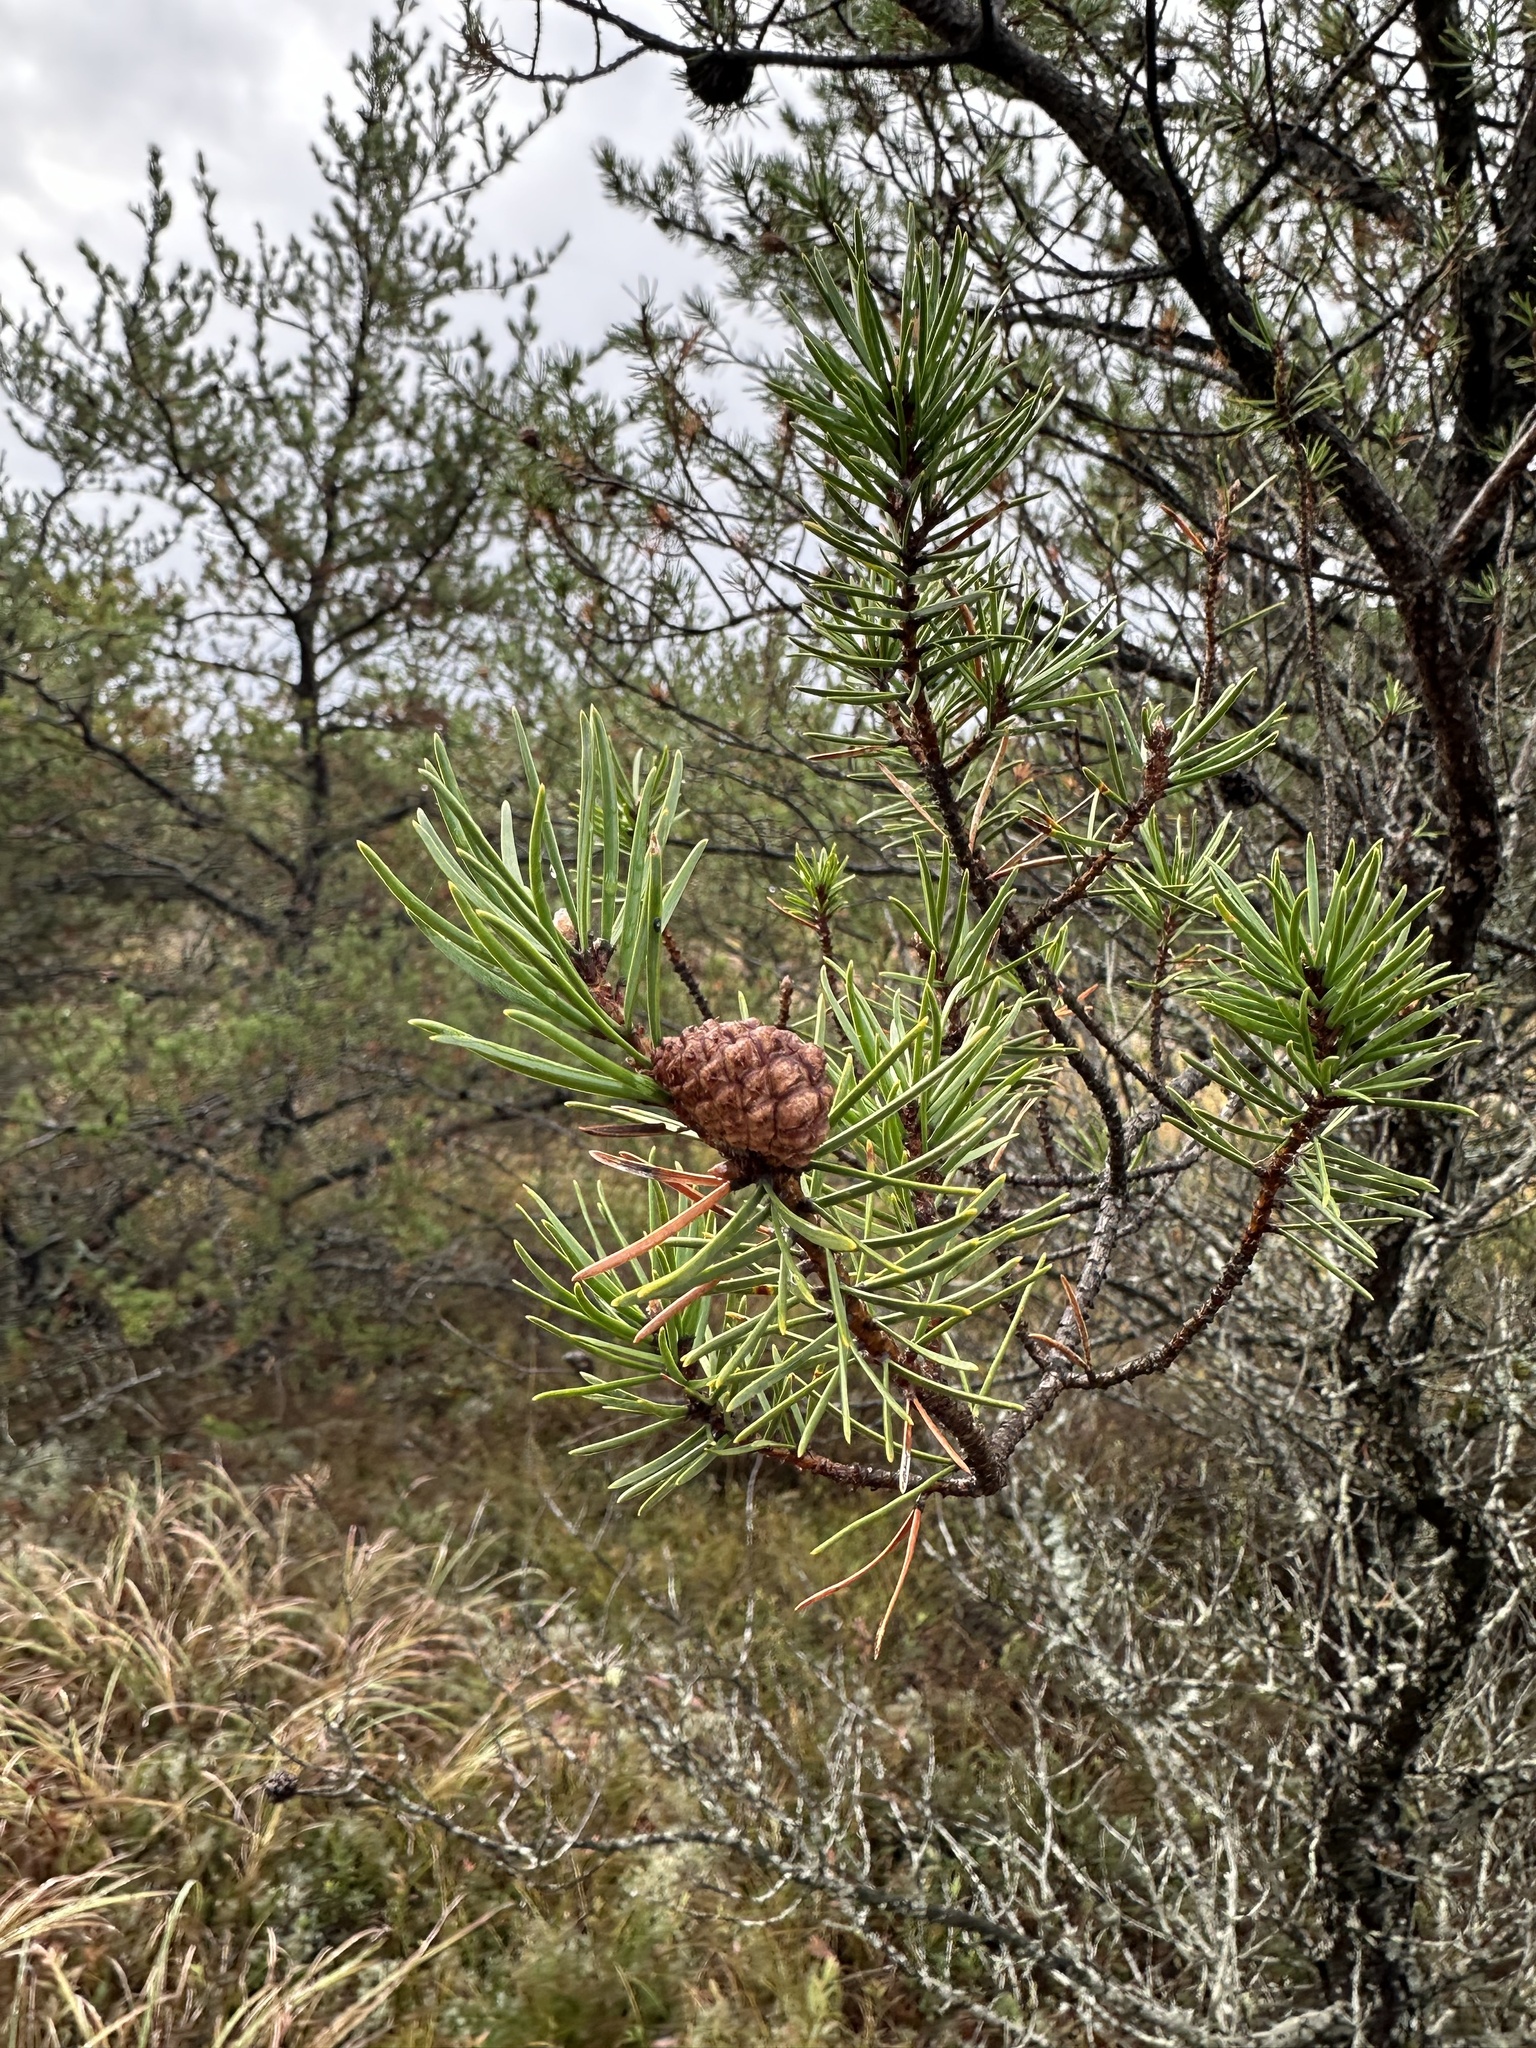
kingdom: Plantae
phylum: Tracheophyta
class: Pinopsida
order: Pinales
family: Pinaceae
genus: Pinus
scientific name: Pinus banksiana
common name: Jack pine
